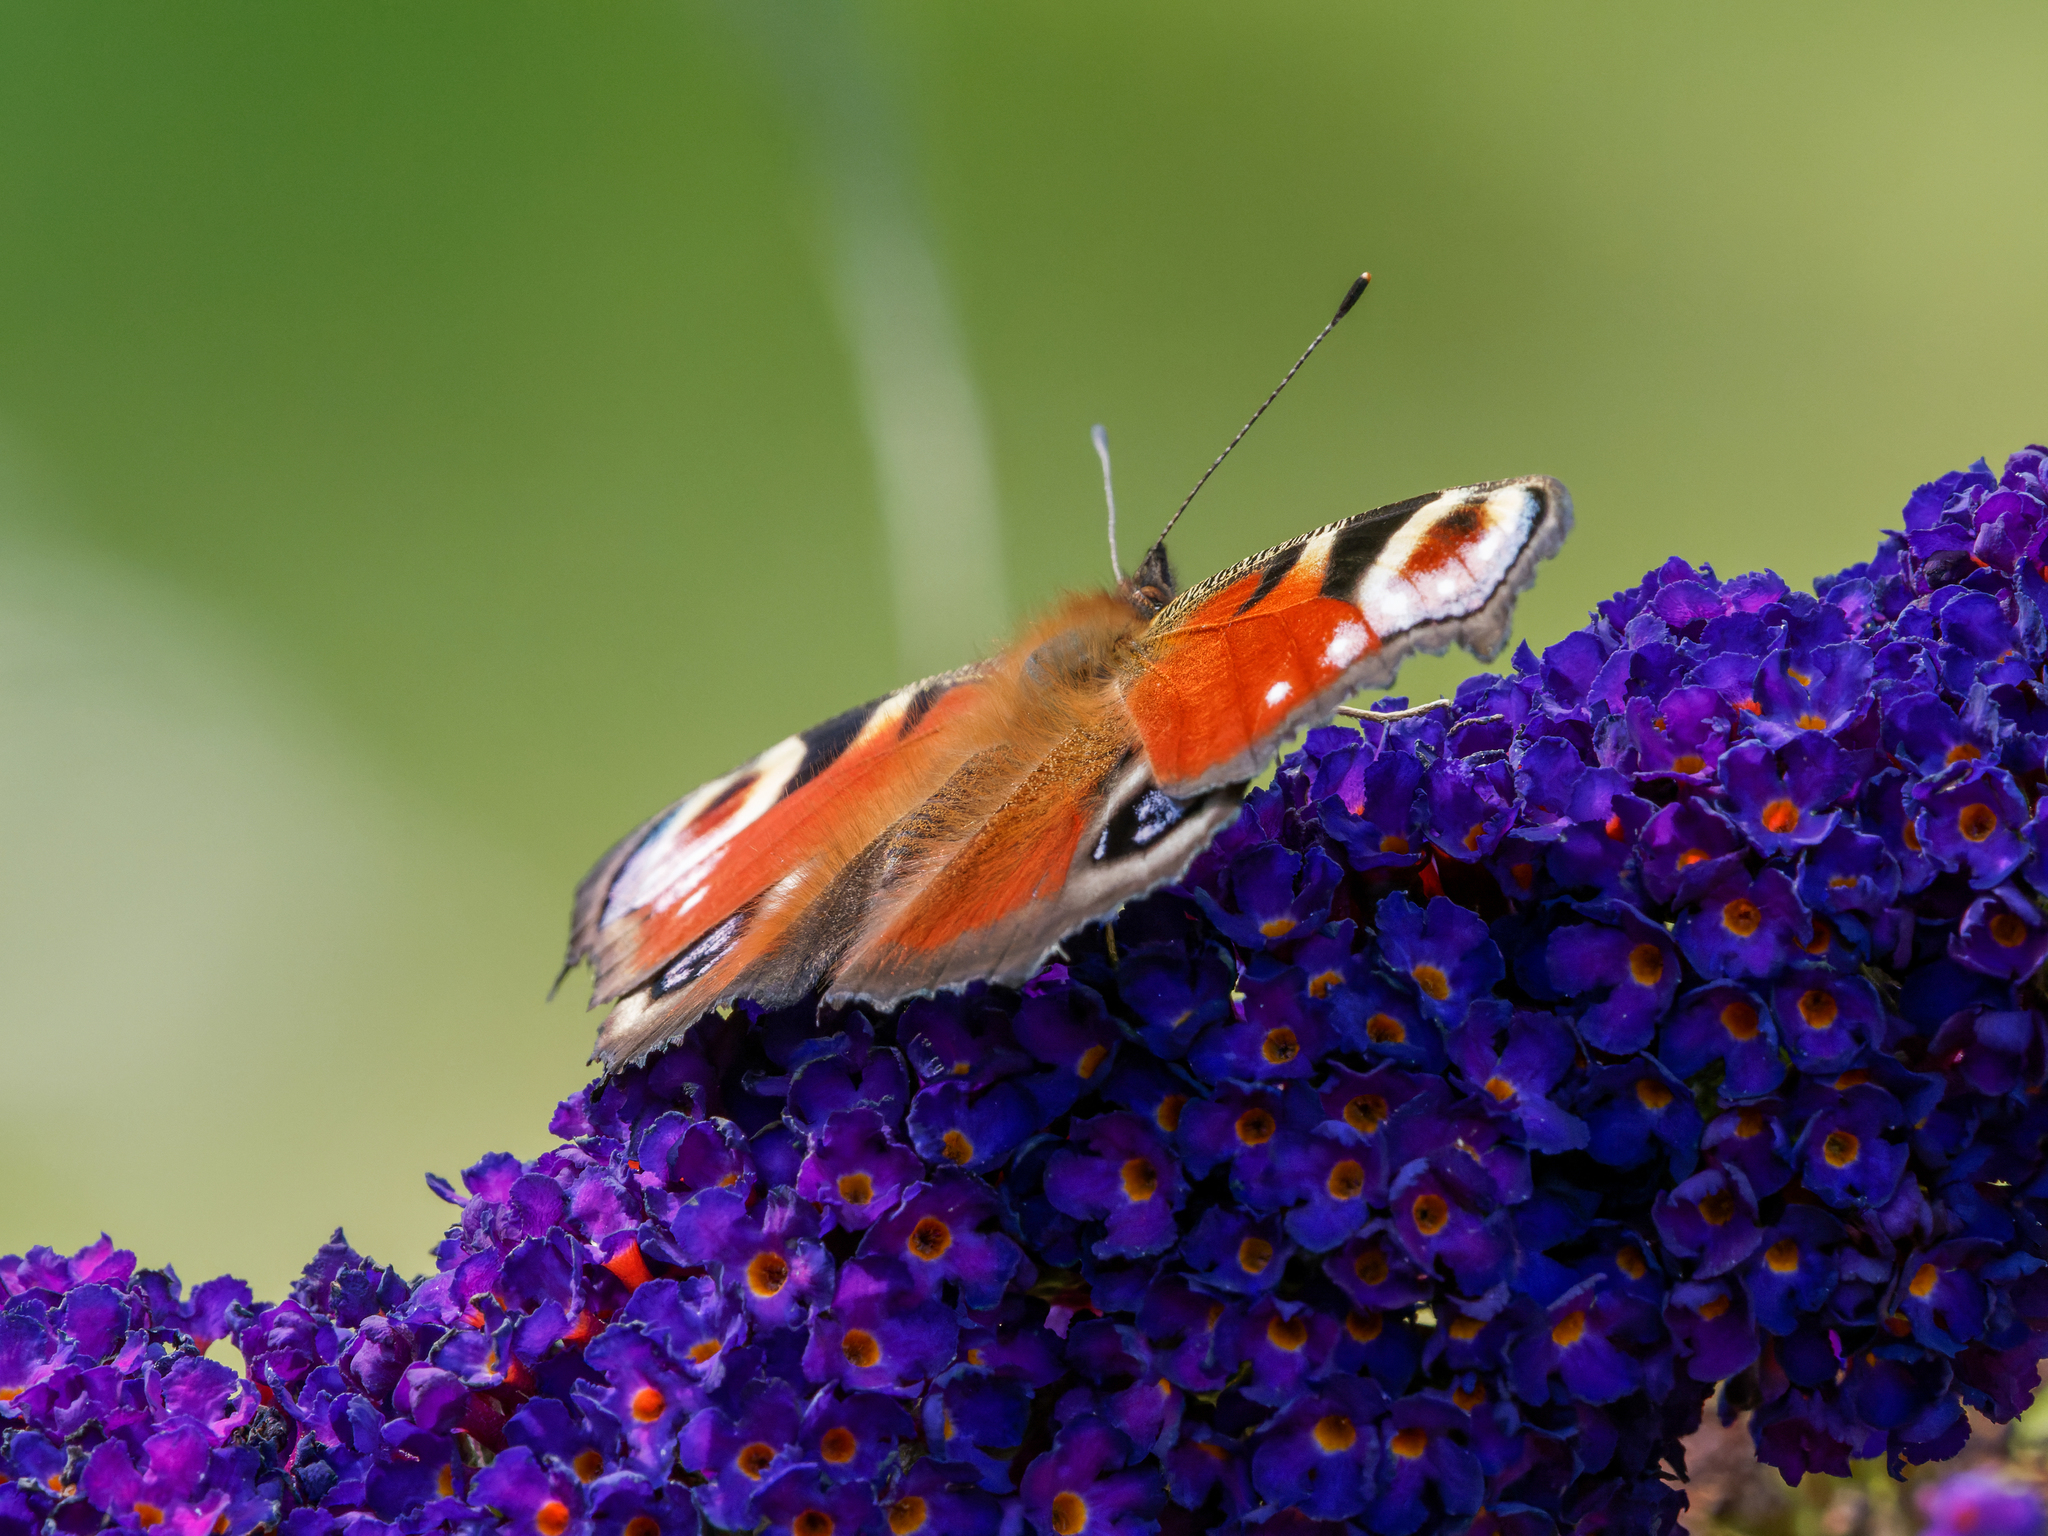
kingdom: Animalia
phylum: Arthropoda
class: Insecta
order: Lepidoptera
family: Nymphalidae
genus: Aglais
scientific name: Aglais io
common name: Peacock
